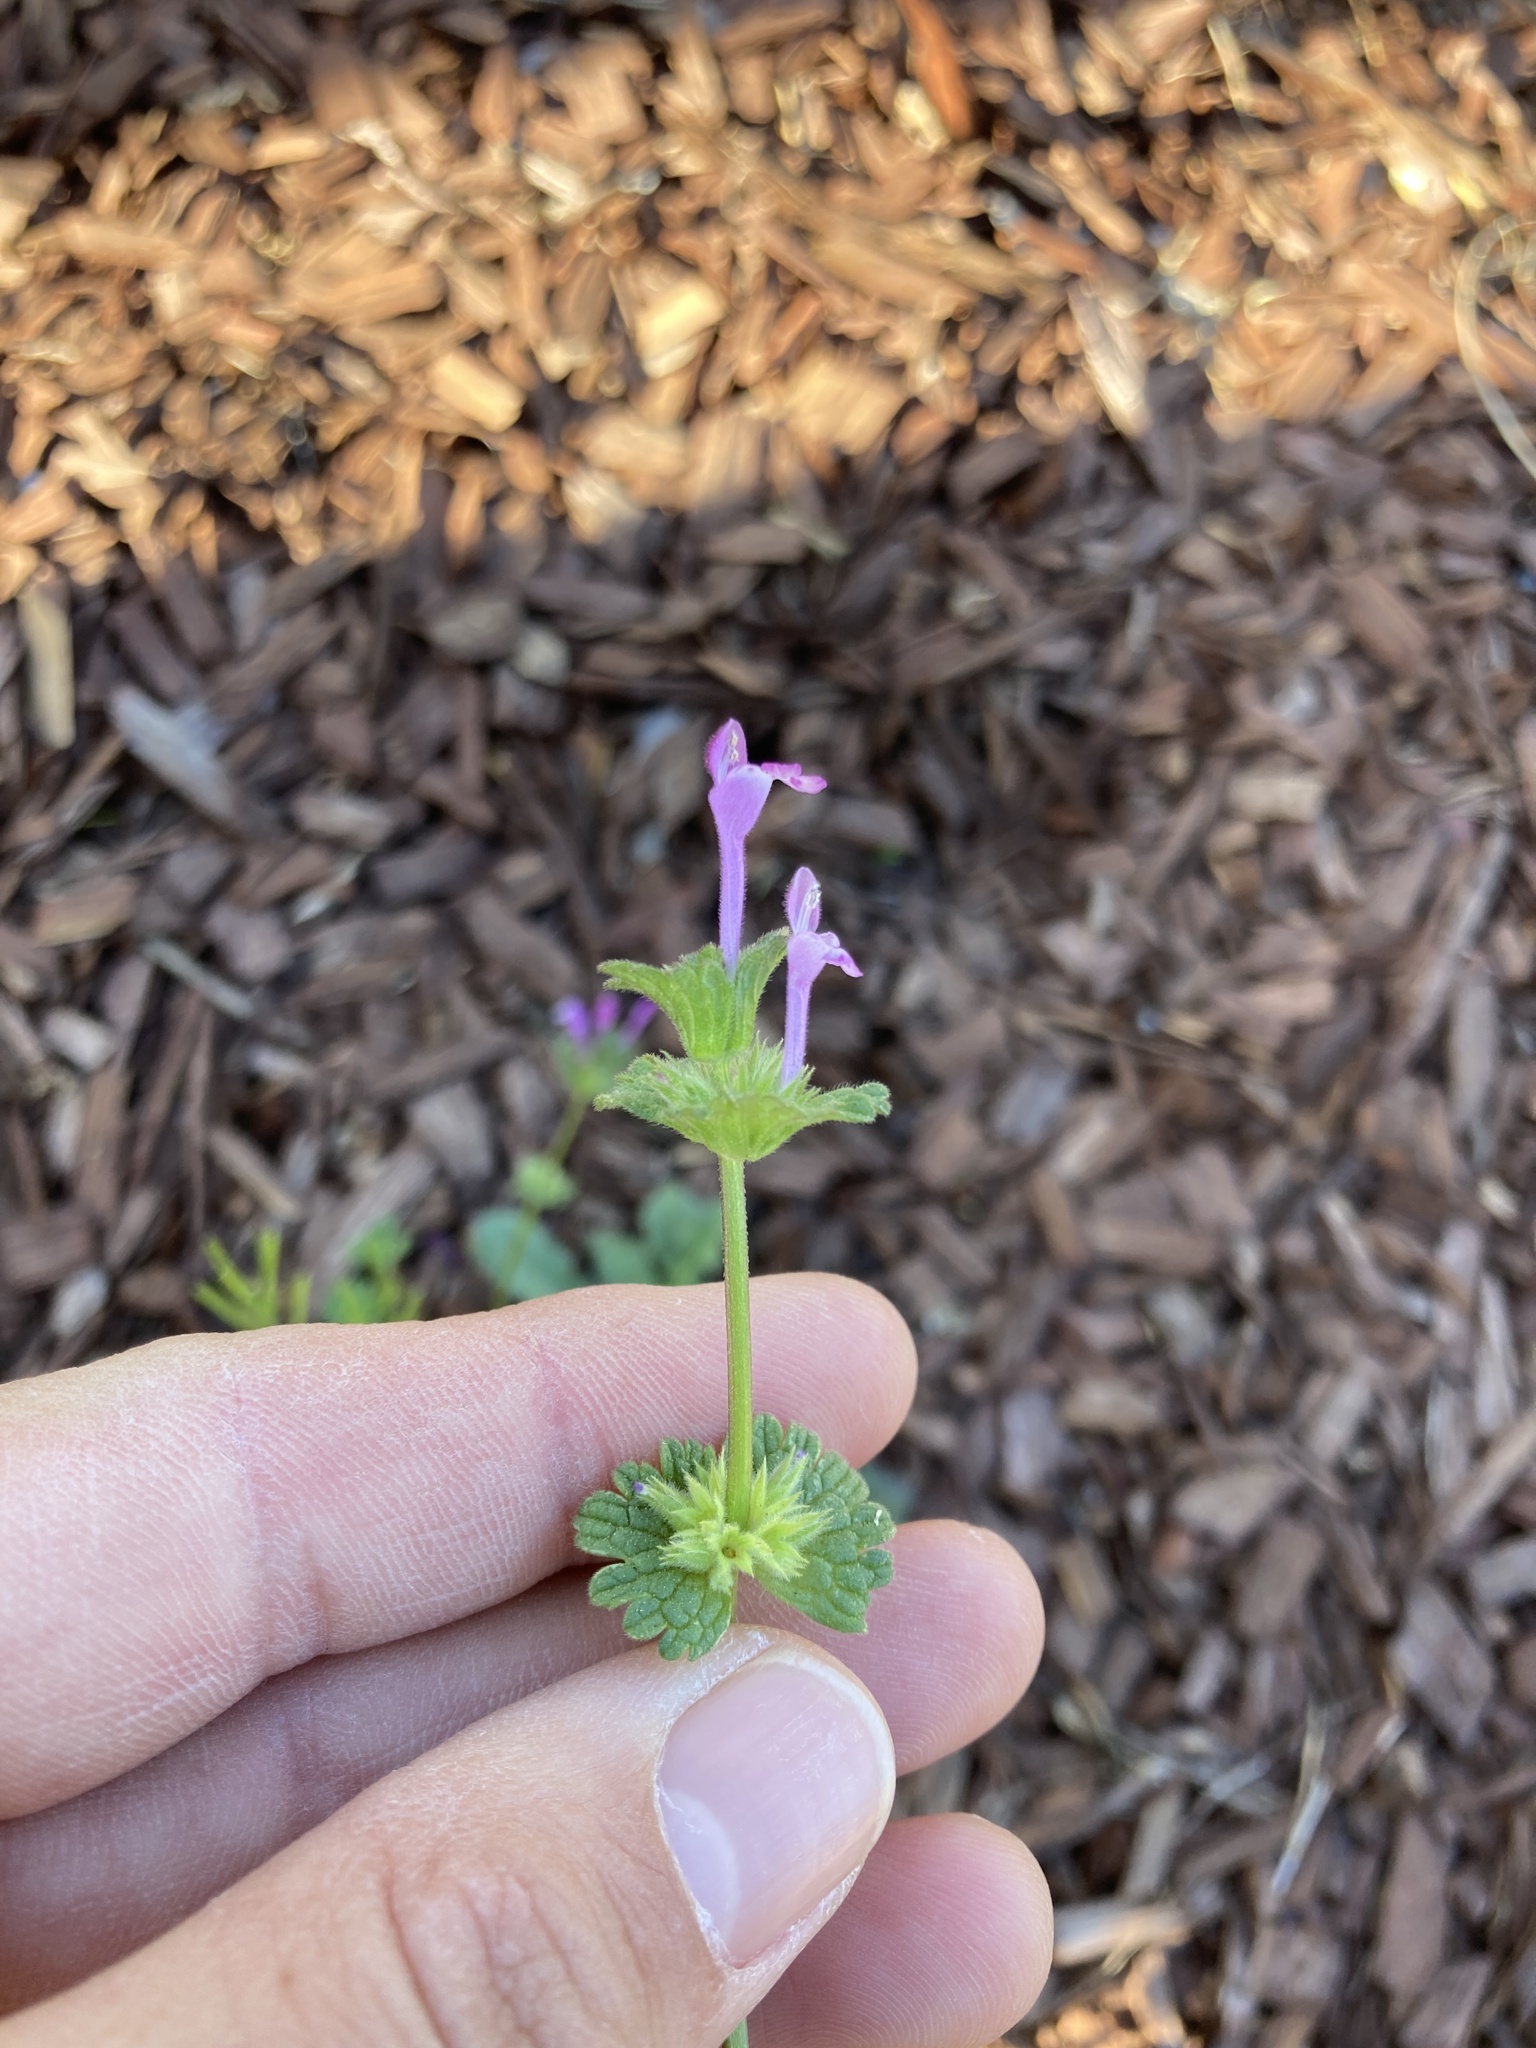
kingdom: Plantae
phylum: Tracheophyta
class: Magnoliopsida
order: Lamiales
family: Lamiaceae
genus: Lamium
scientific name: Lamium amplexicaule
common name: Henbit dead-nettle
